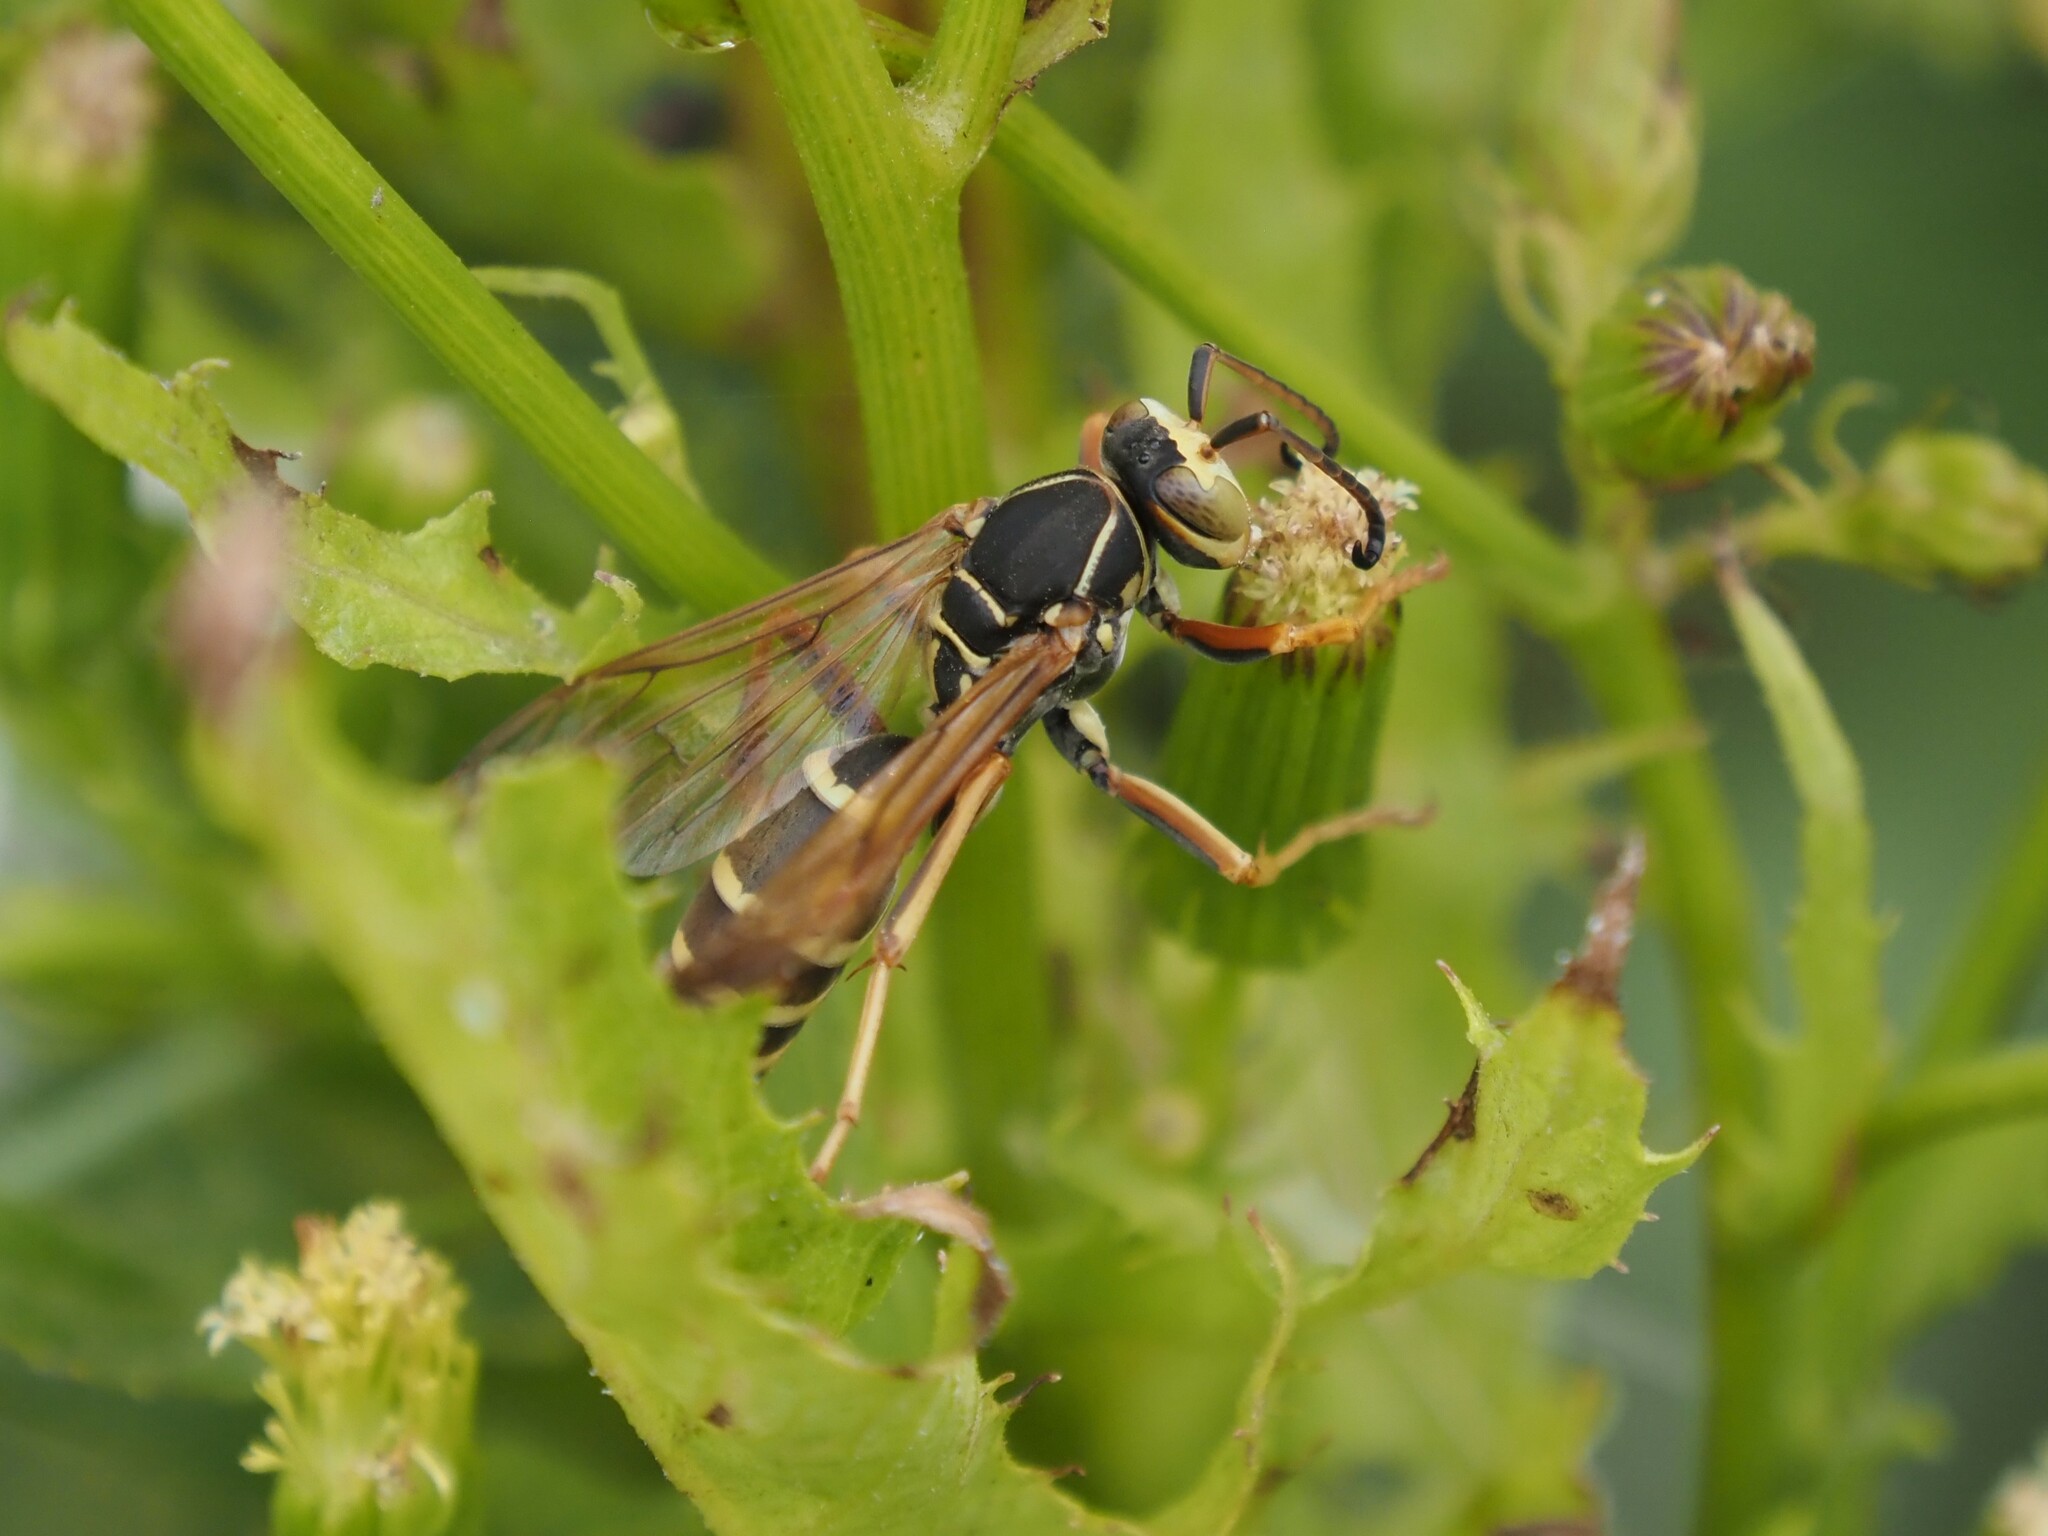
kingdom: Animalia
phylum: Arthropoda
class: Insecta
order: Hymenoptera
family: Eumenidae
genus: Polistes
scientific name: Polistes fuscatus
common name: Dark paper wasp
